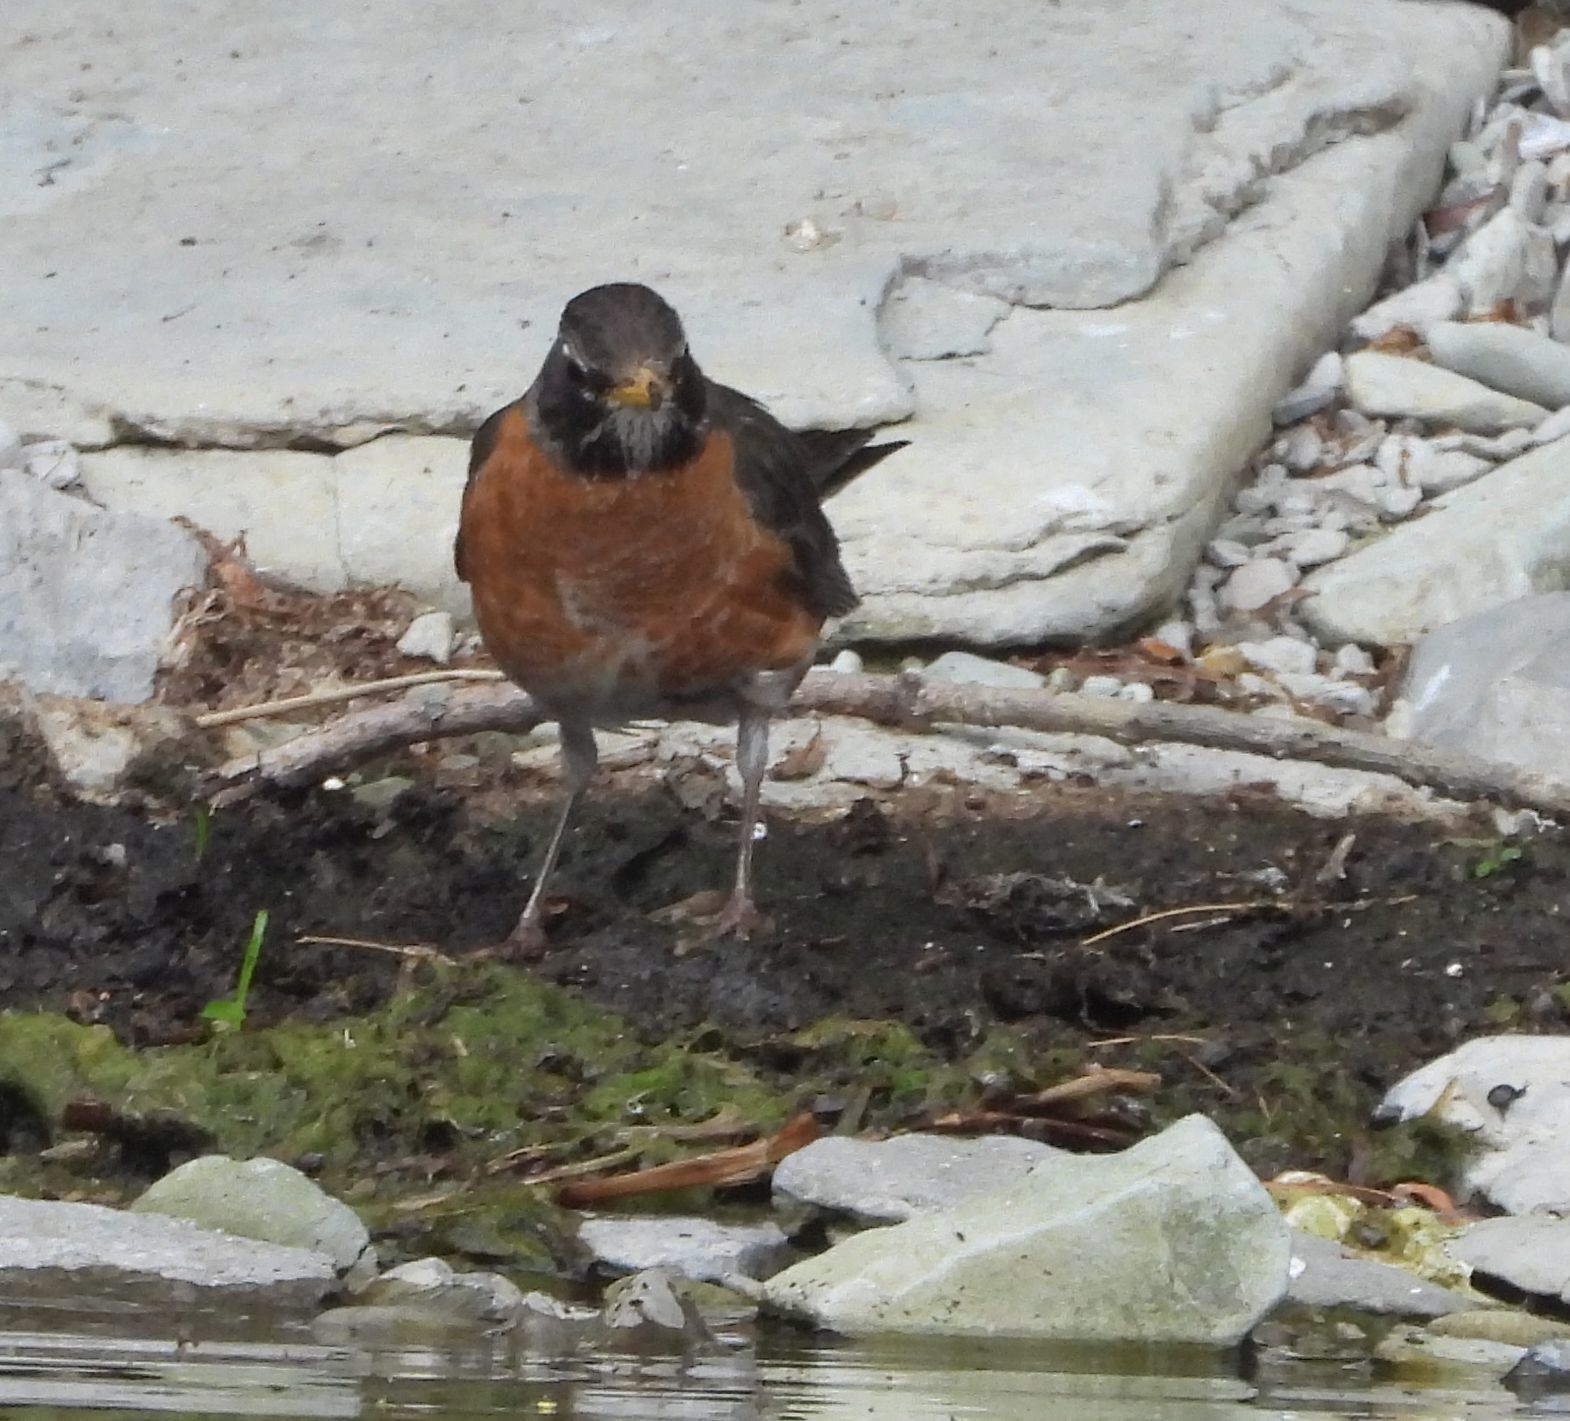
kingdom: Animalia
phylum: Chordata
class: Aves
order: Passeriformes
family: Turdidae
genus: Turdus
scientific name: Turdus migratorius
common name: American robin
